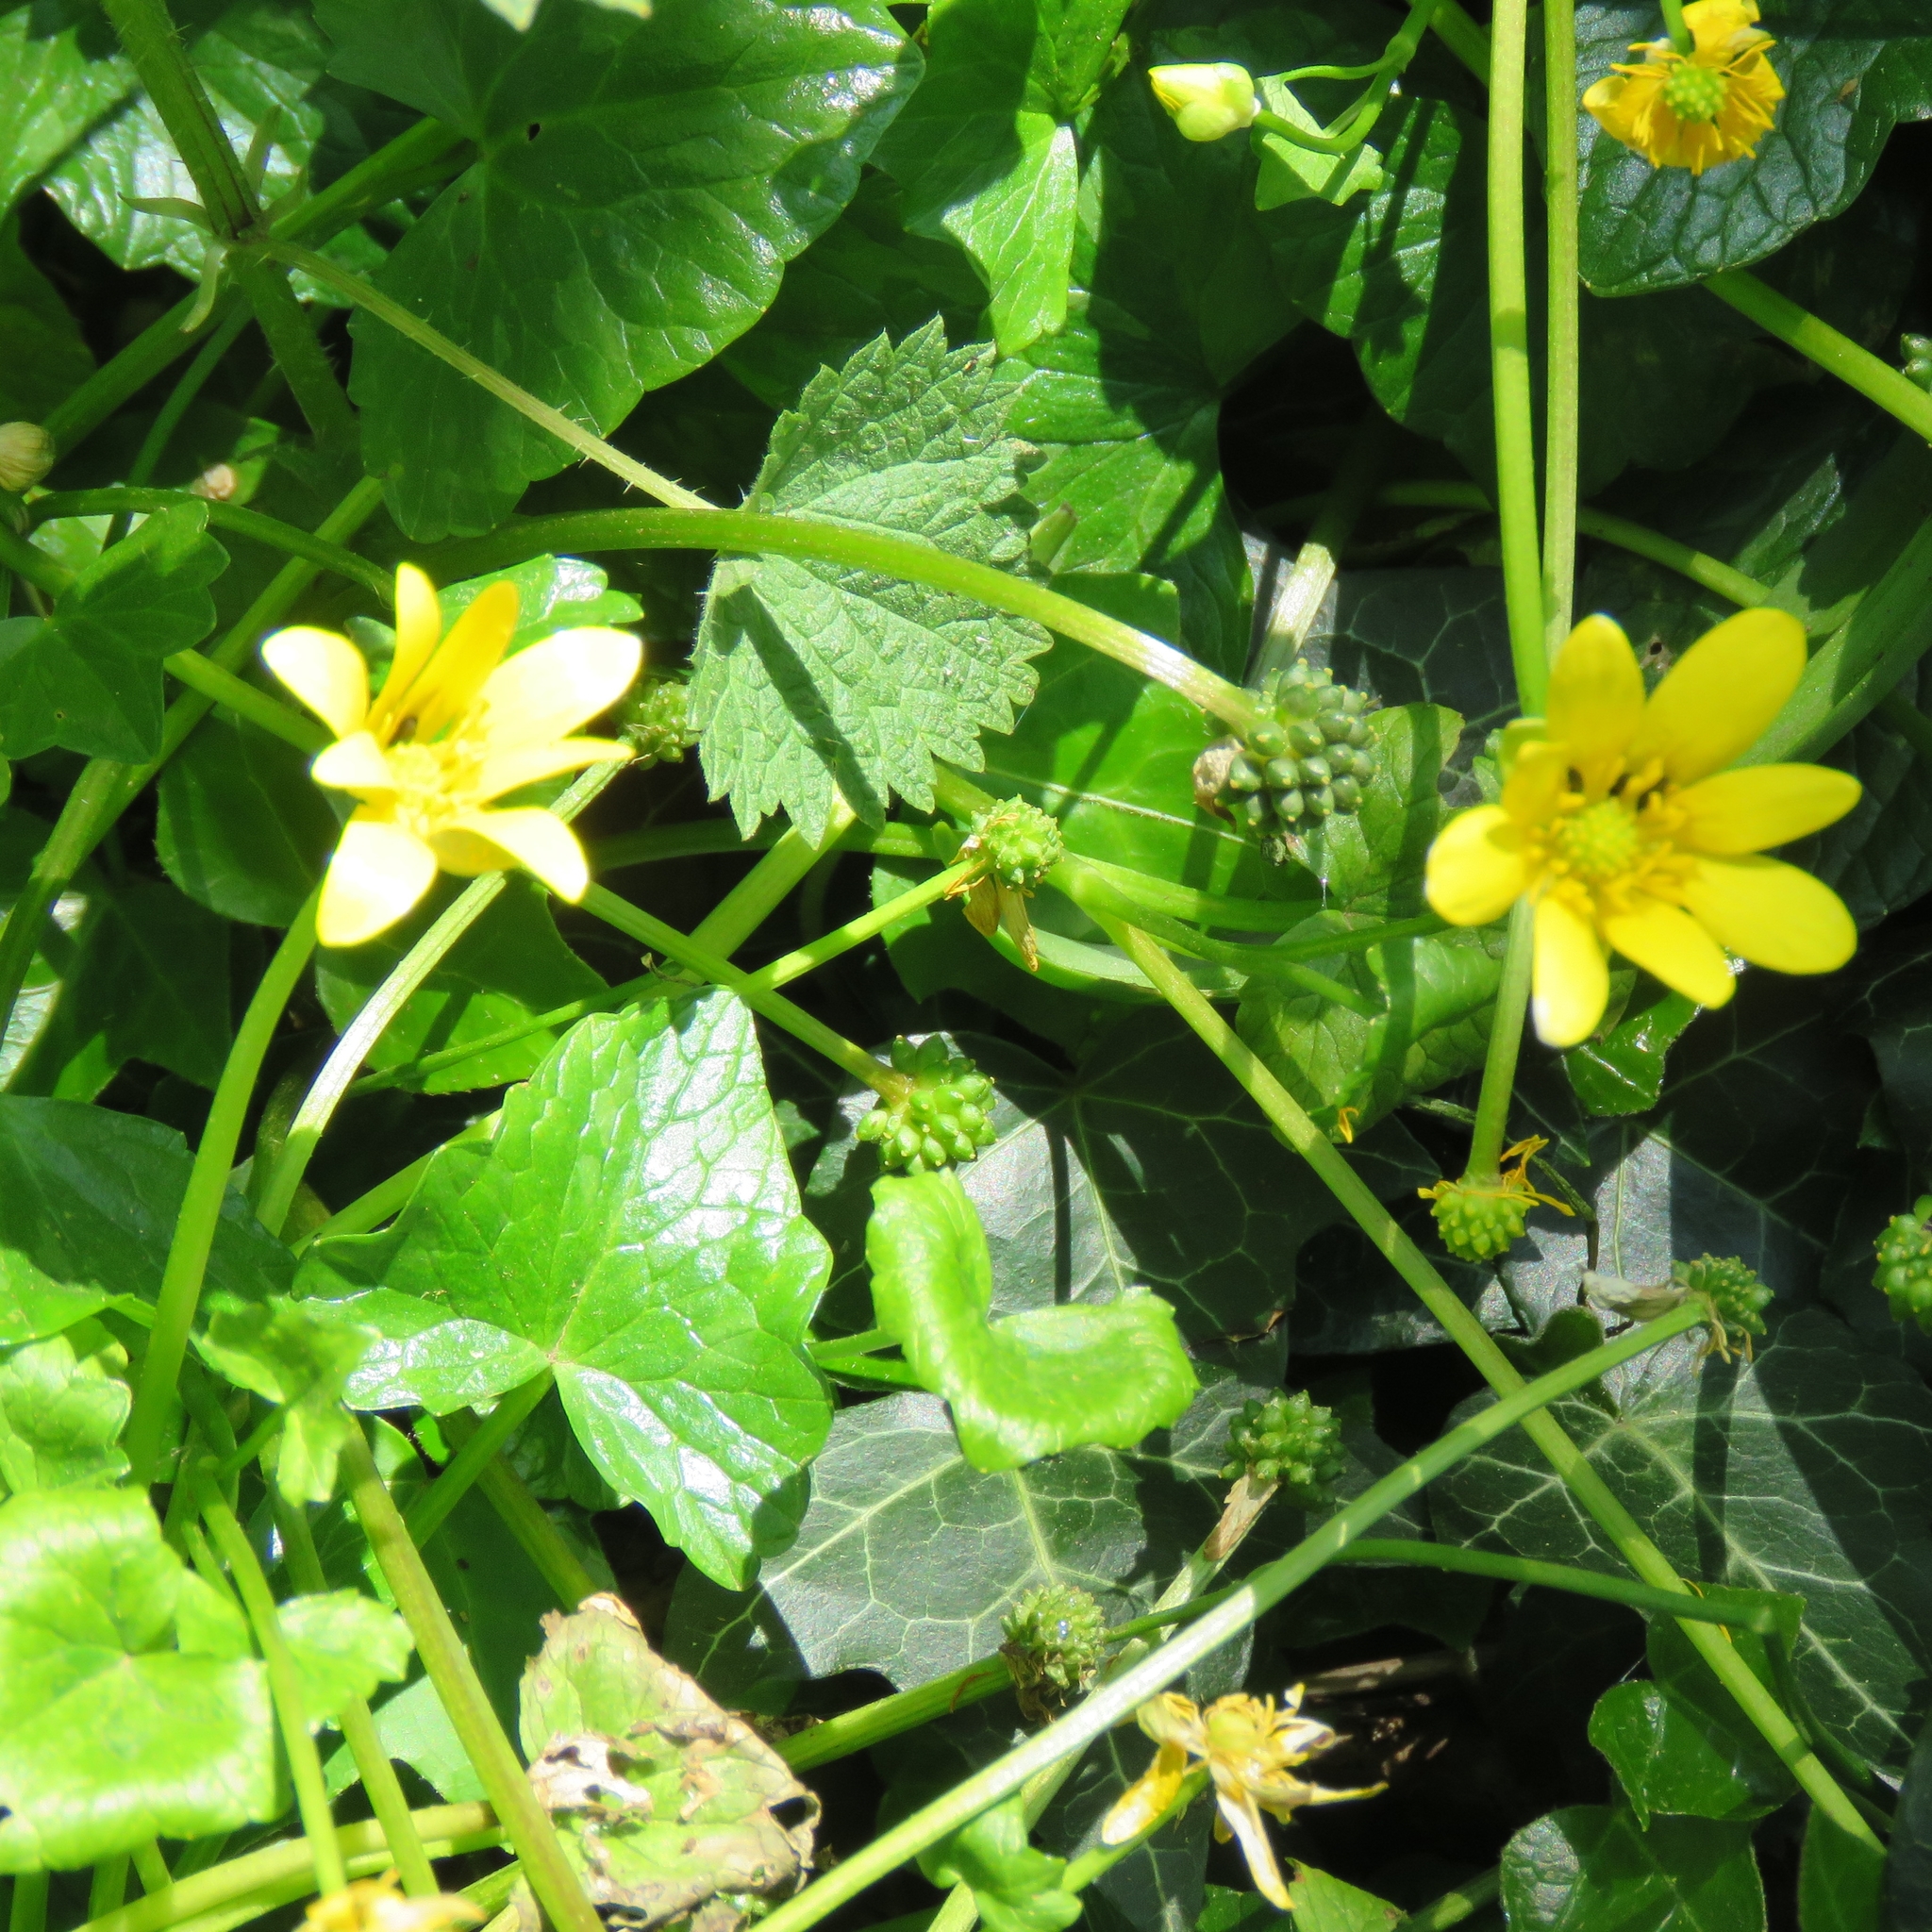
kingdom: Plantae
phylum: Tracheophyta
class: Magnoliopsida
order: Ranunculales
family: Ranunculaceae
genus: Ficaria
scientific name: Ficaria verna
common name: Lesser celandine
